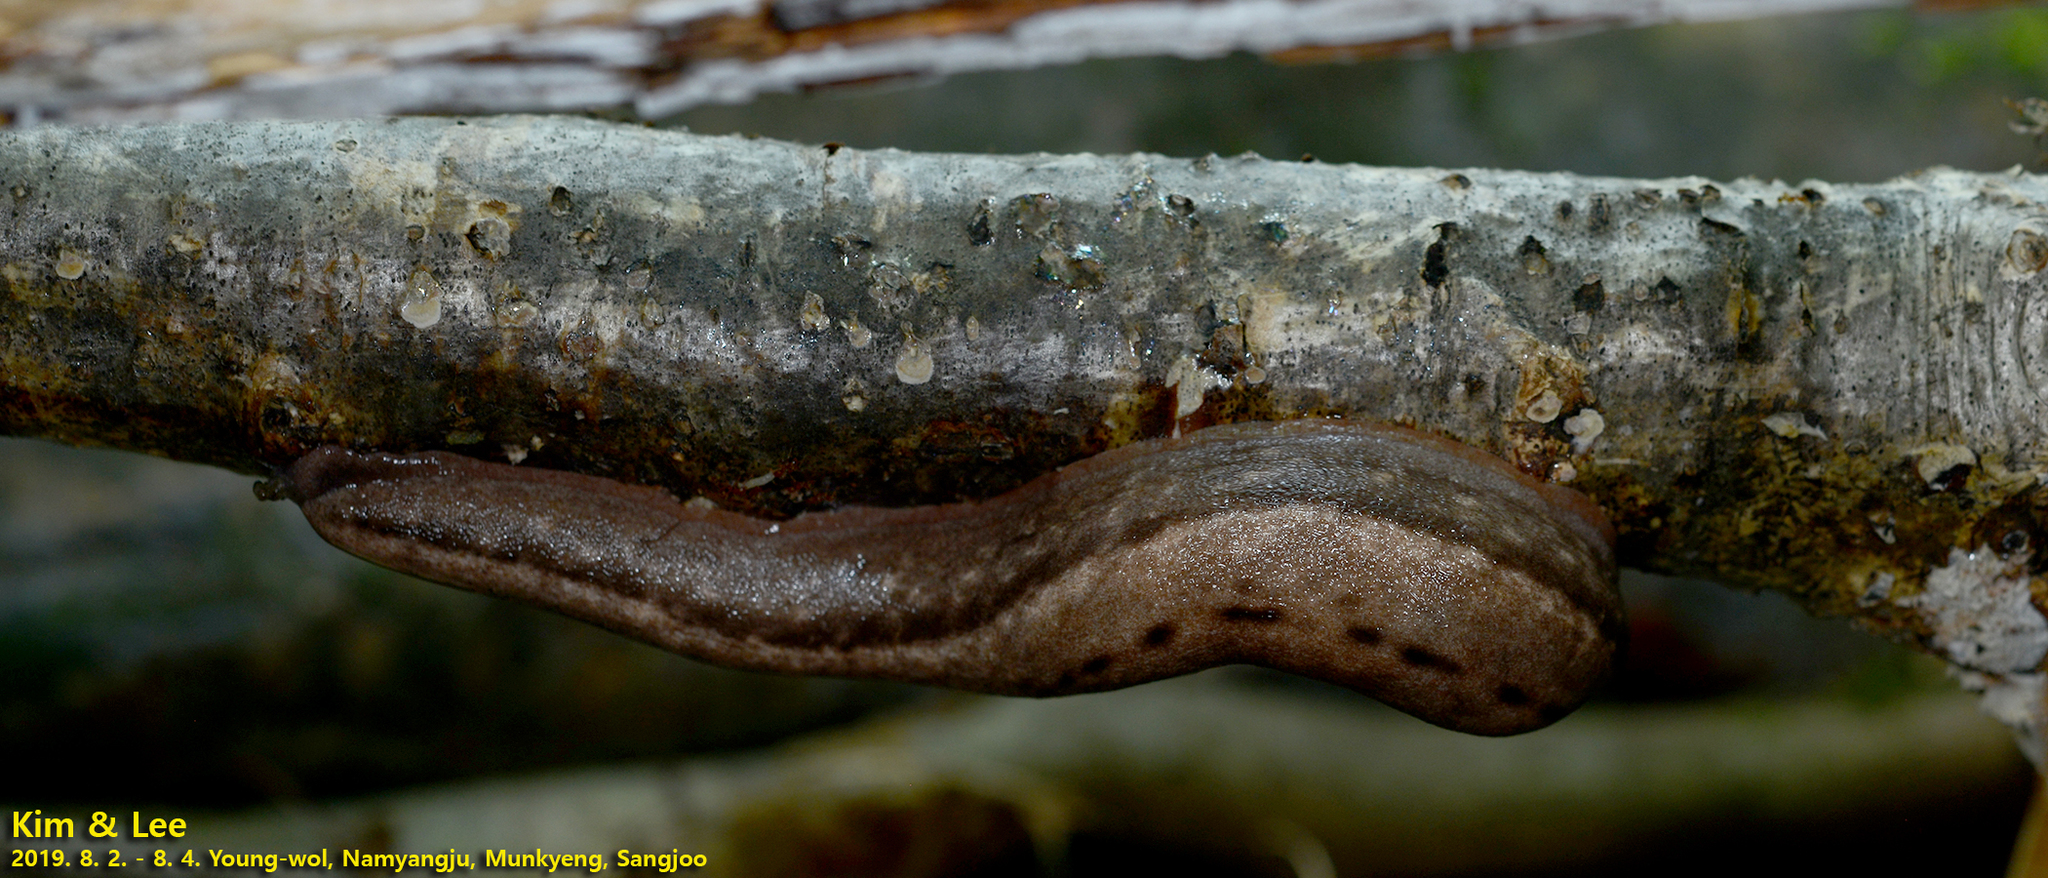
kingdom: Animalia
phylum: Mollusca
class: Gastropoda
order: Stylommatophora
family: Philomycidae
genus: Meghimatium
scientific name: Meghimatium fruhstorferi
